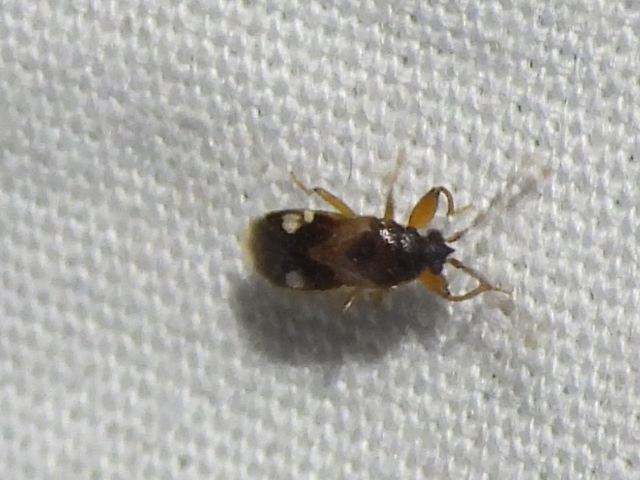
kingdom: Animalia
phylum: Arthropoda
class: Insecta
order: Hemiptera
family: Rhyparochromidae
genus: Tempyra
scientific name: Tempyra biguttula
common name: Seed bug
